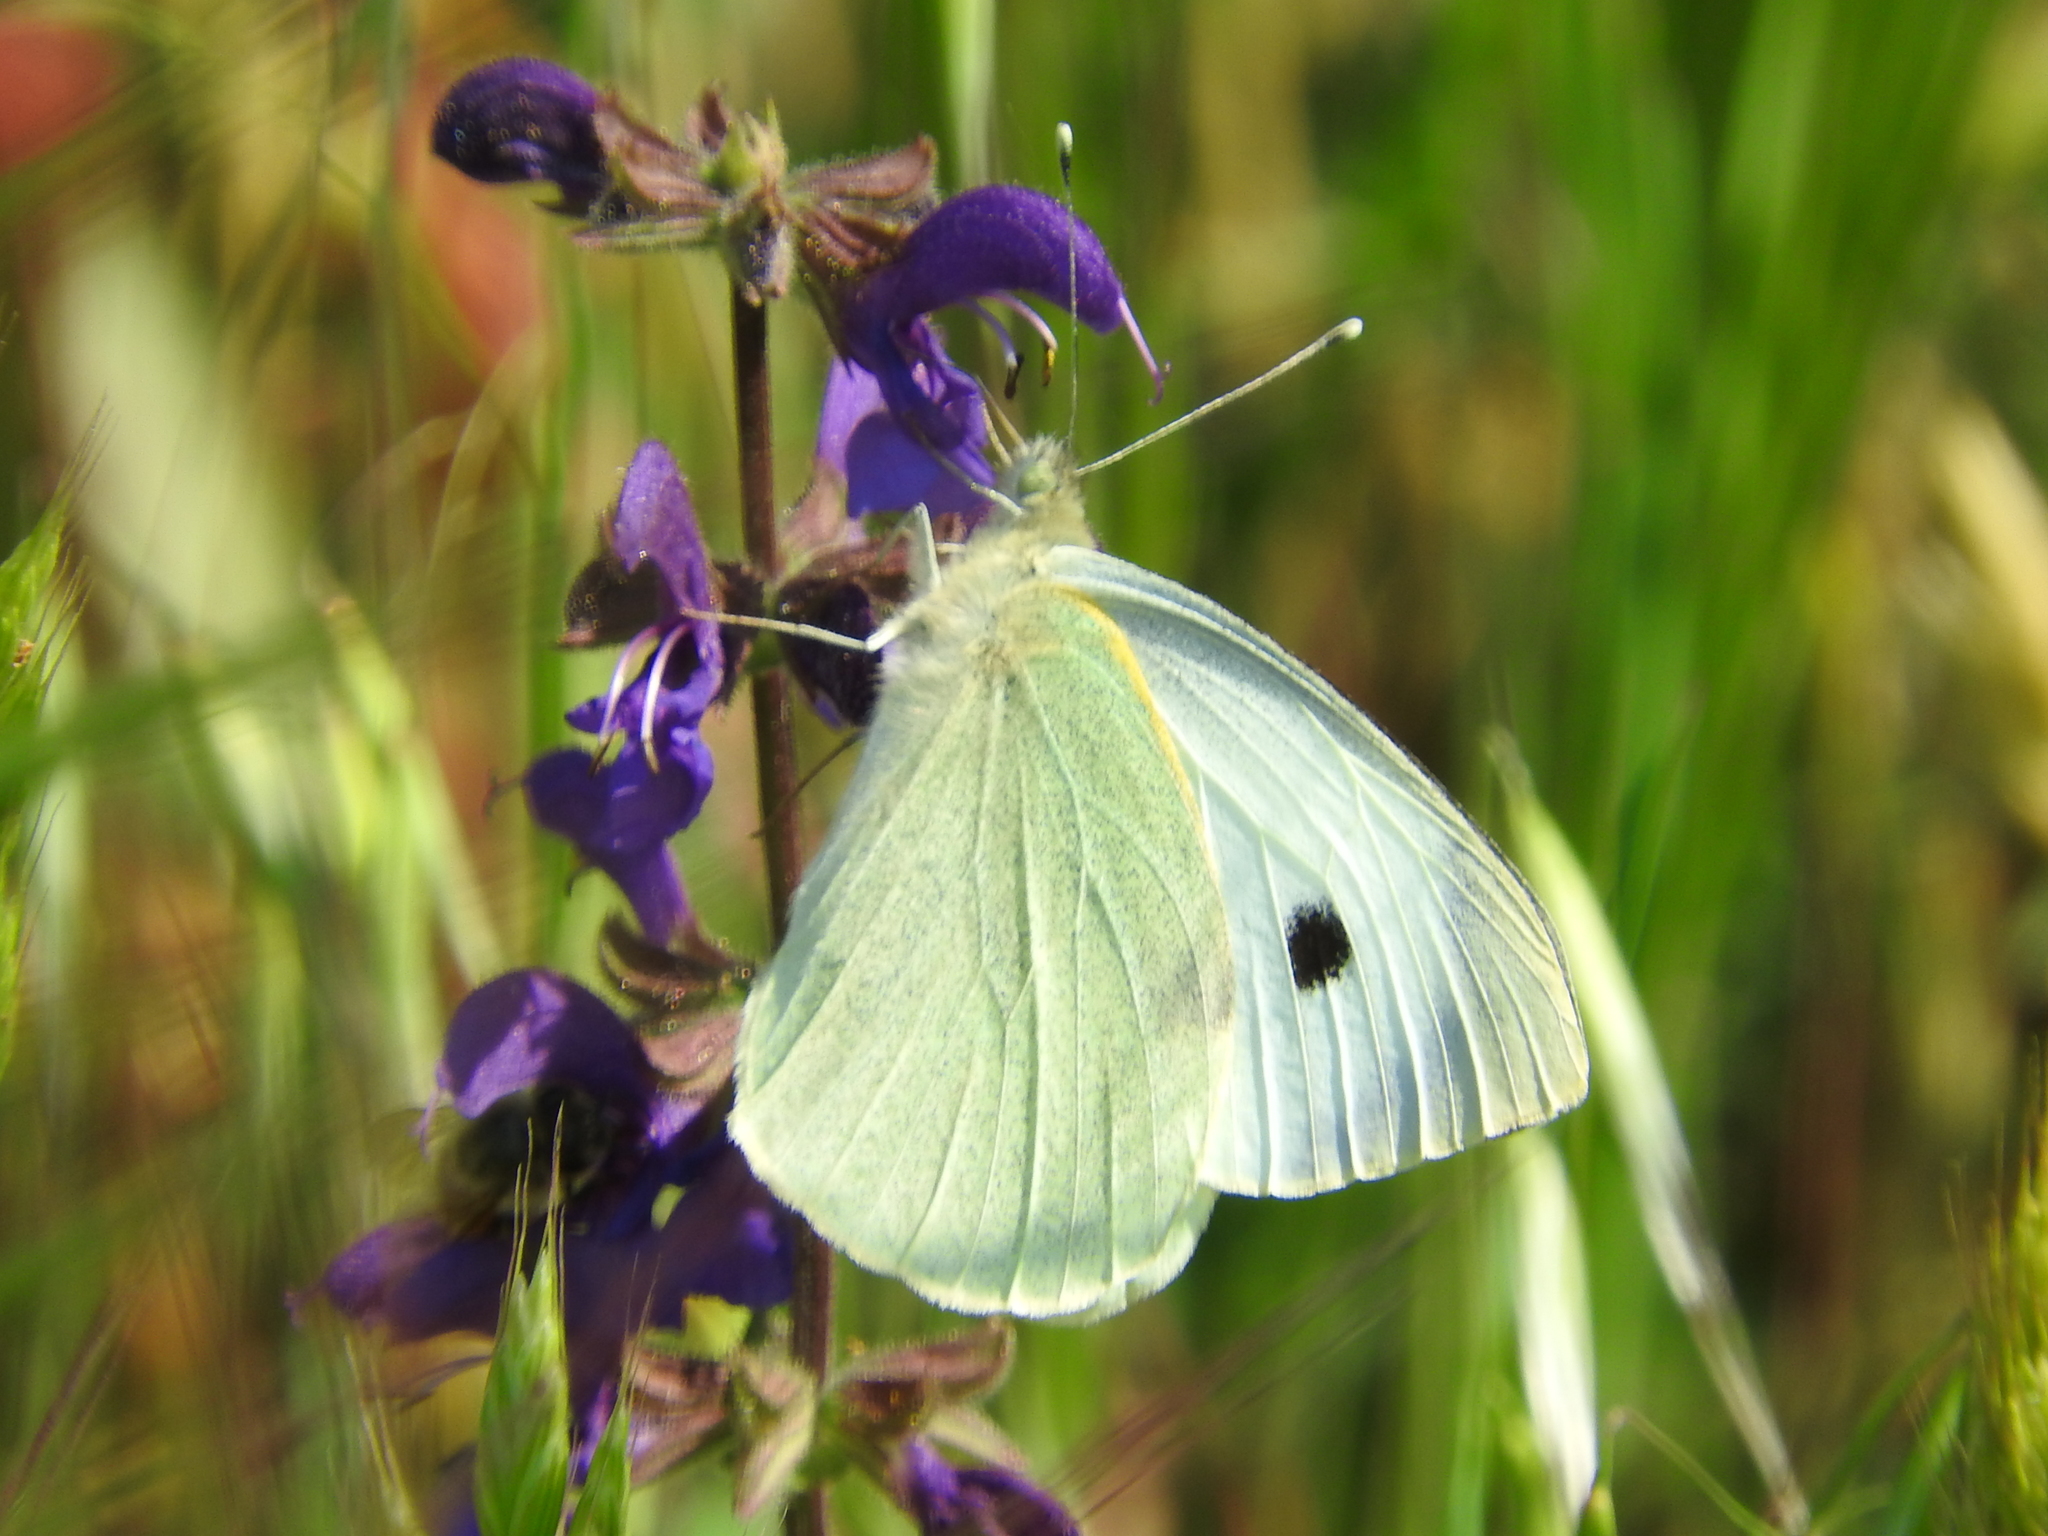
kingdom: Animalia
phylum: Arthropoda
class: Insecta
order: Lepidoptera
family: Pieridae
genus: Pieris
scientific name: Pieris brassicae
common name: Large white
